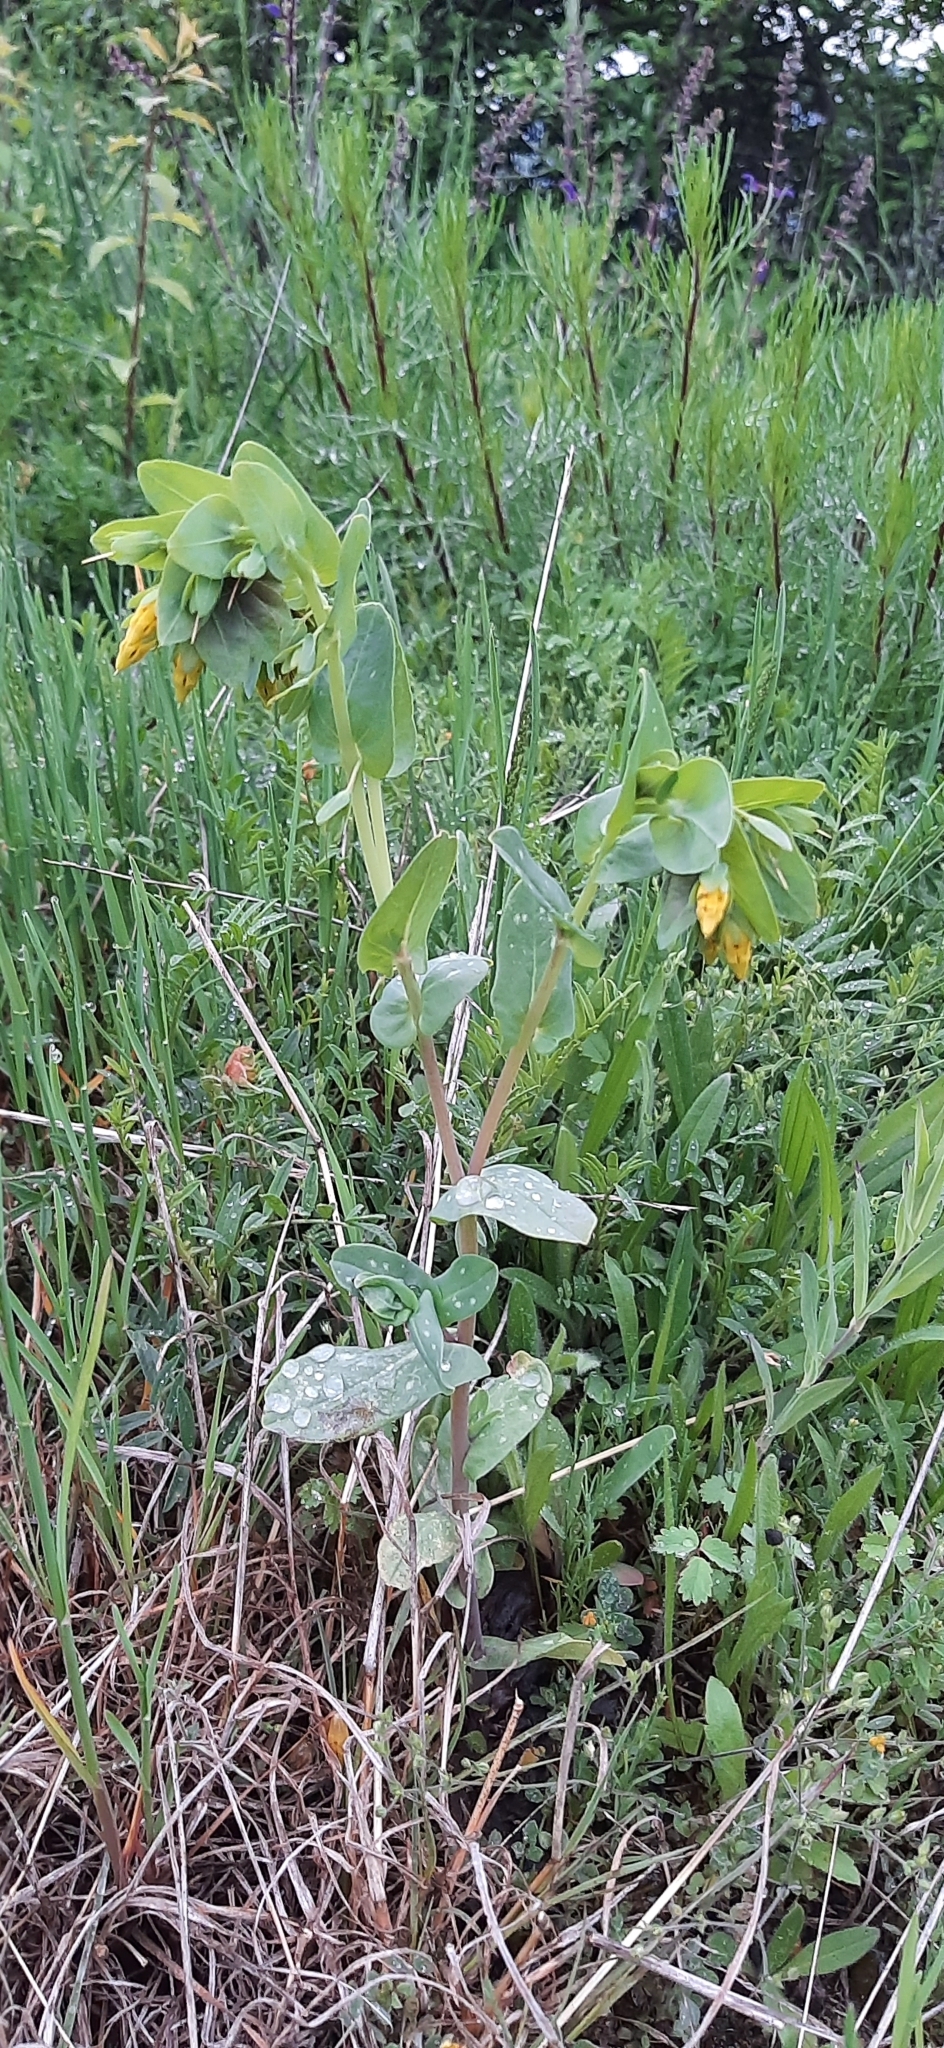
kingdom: Plantae
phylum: Tracheophyta
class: Magnoliopsida
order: Boraginales
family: Boraginaceae
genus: Cerinthe
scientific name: Cerinthe minor
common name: Lesser honeywort
